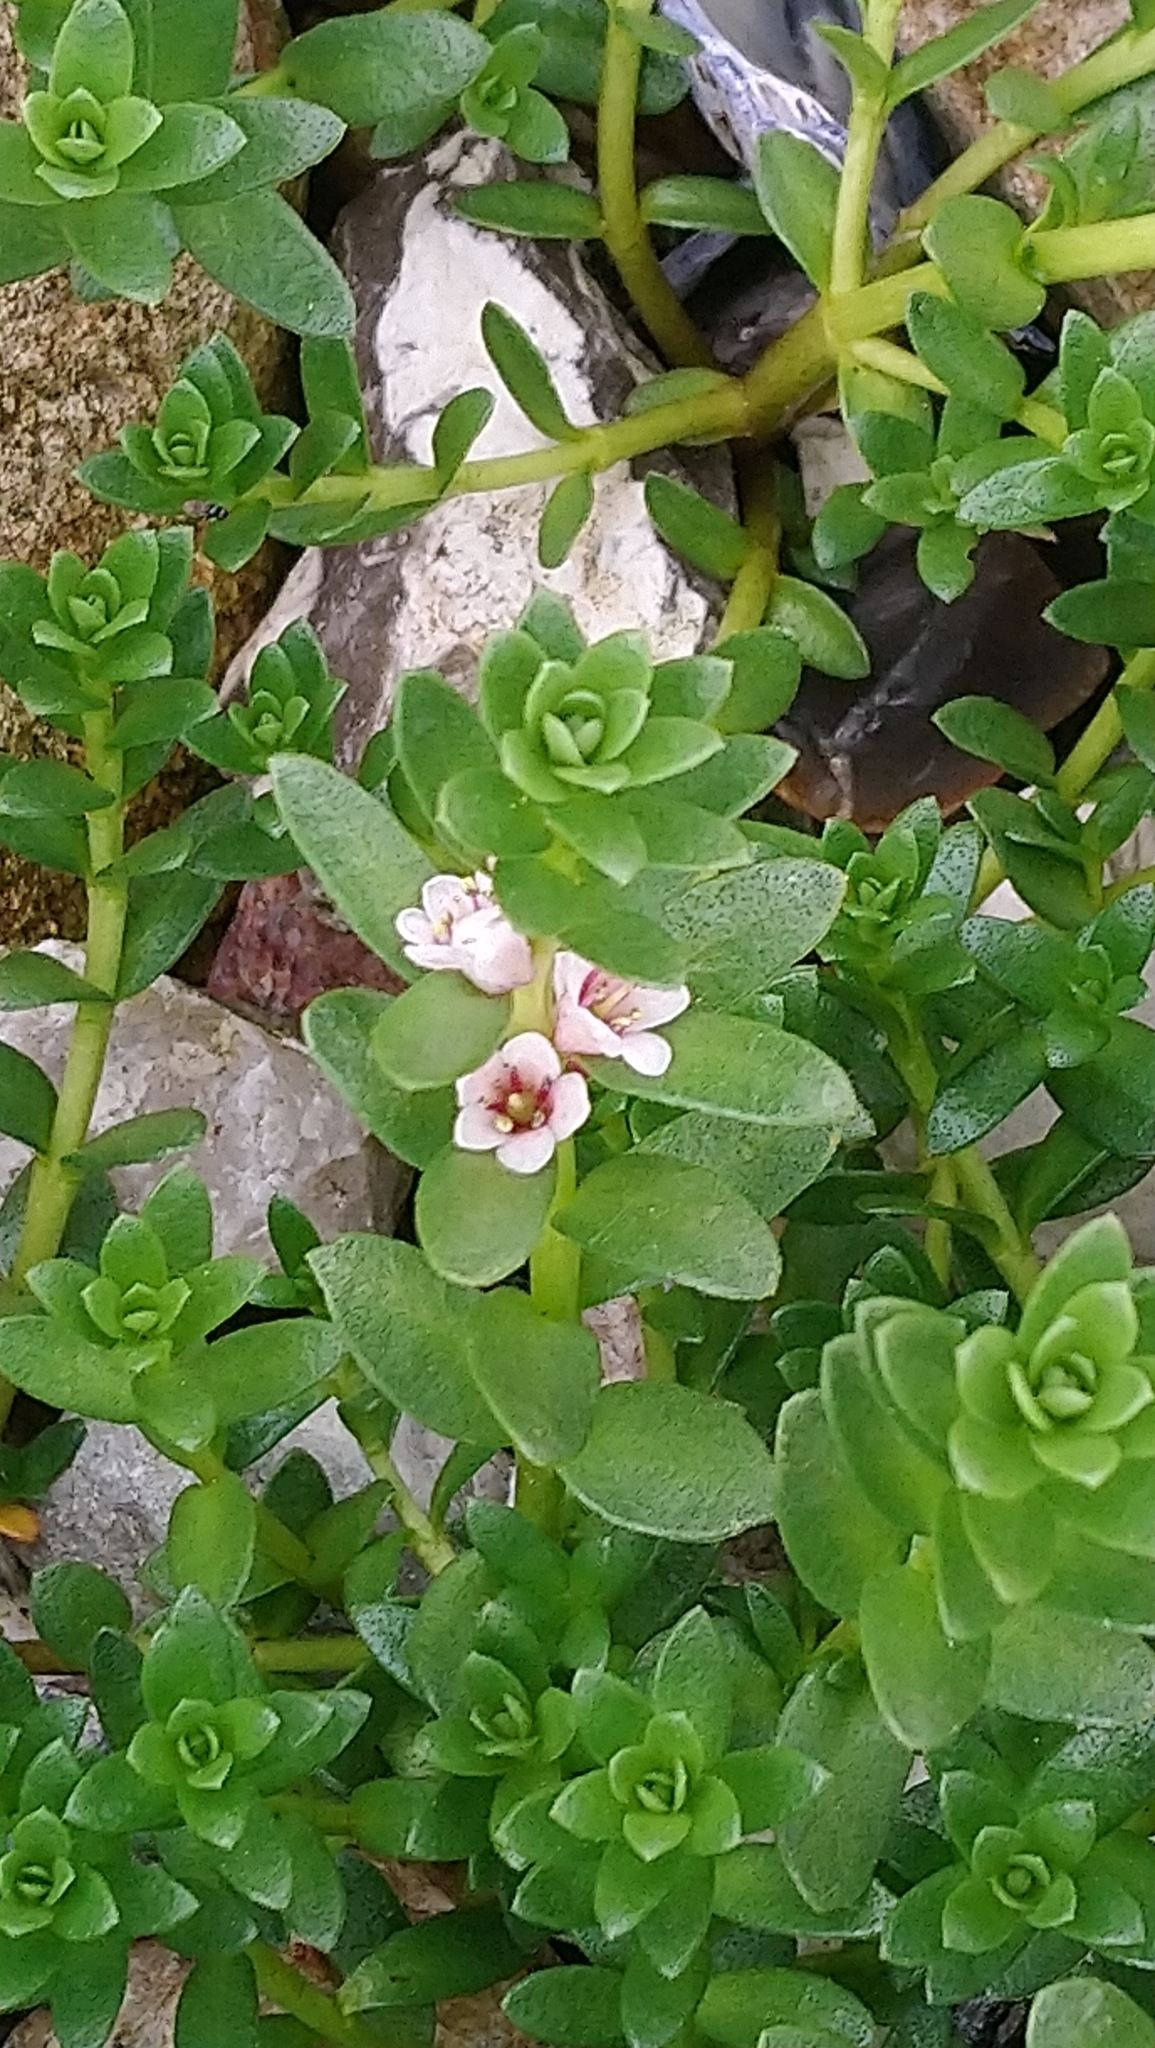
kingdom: Plantae
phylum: Tracheophyta
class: Magnoliopsida
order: Ericales
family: Primulaceae
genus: Lysimachia
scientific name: Lysimachia maritima
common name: Sea milkwort
